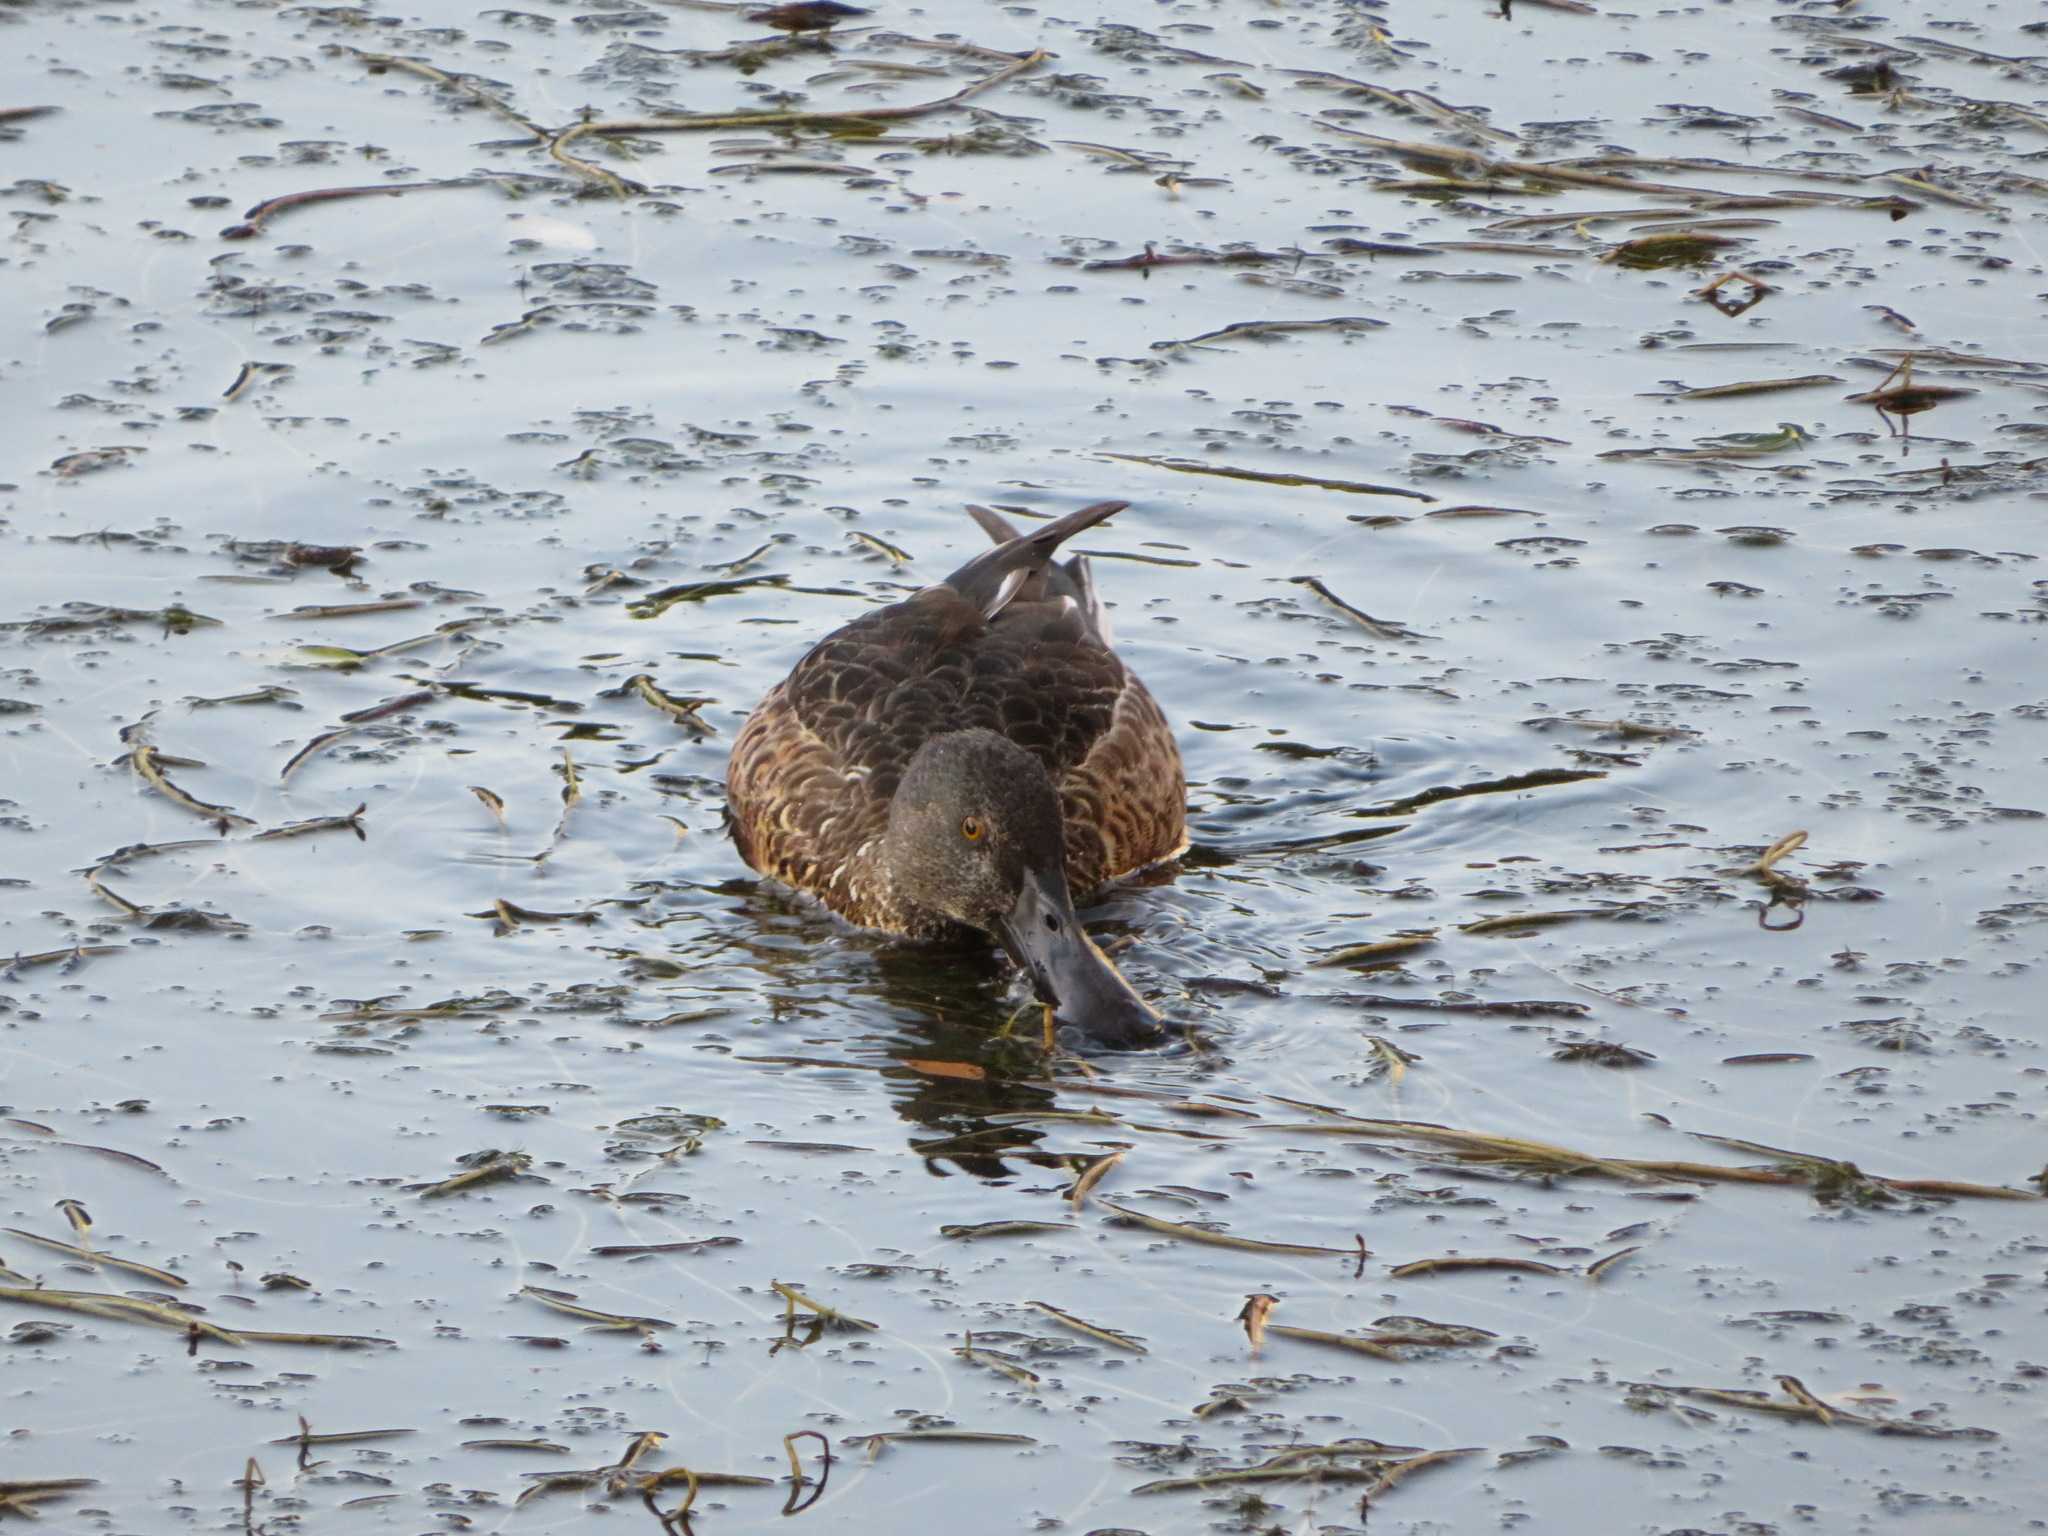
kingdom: Animalia
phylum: Chordata
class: Aves
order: Anseriformes
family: Anatidae
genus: Spatula
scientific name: Spatula clypeata
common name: Northern shoveler
